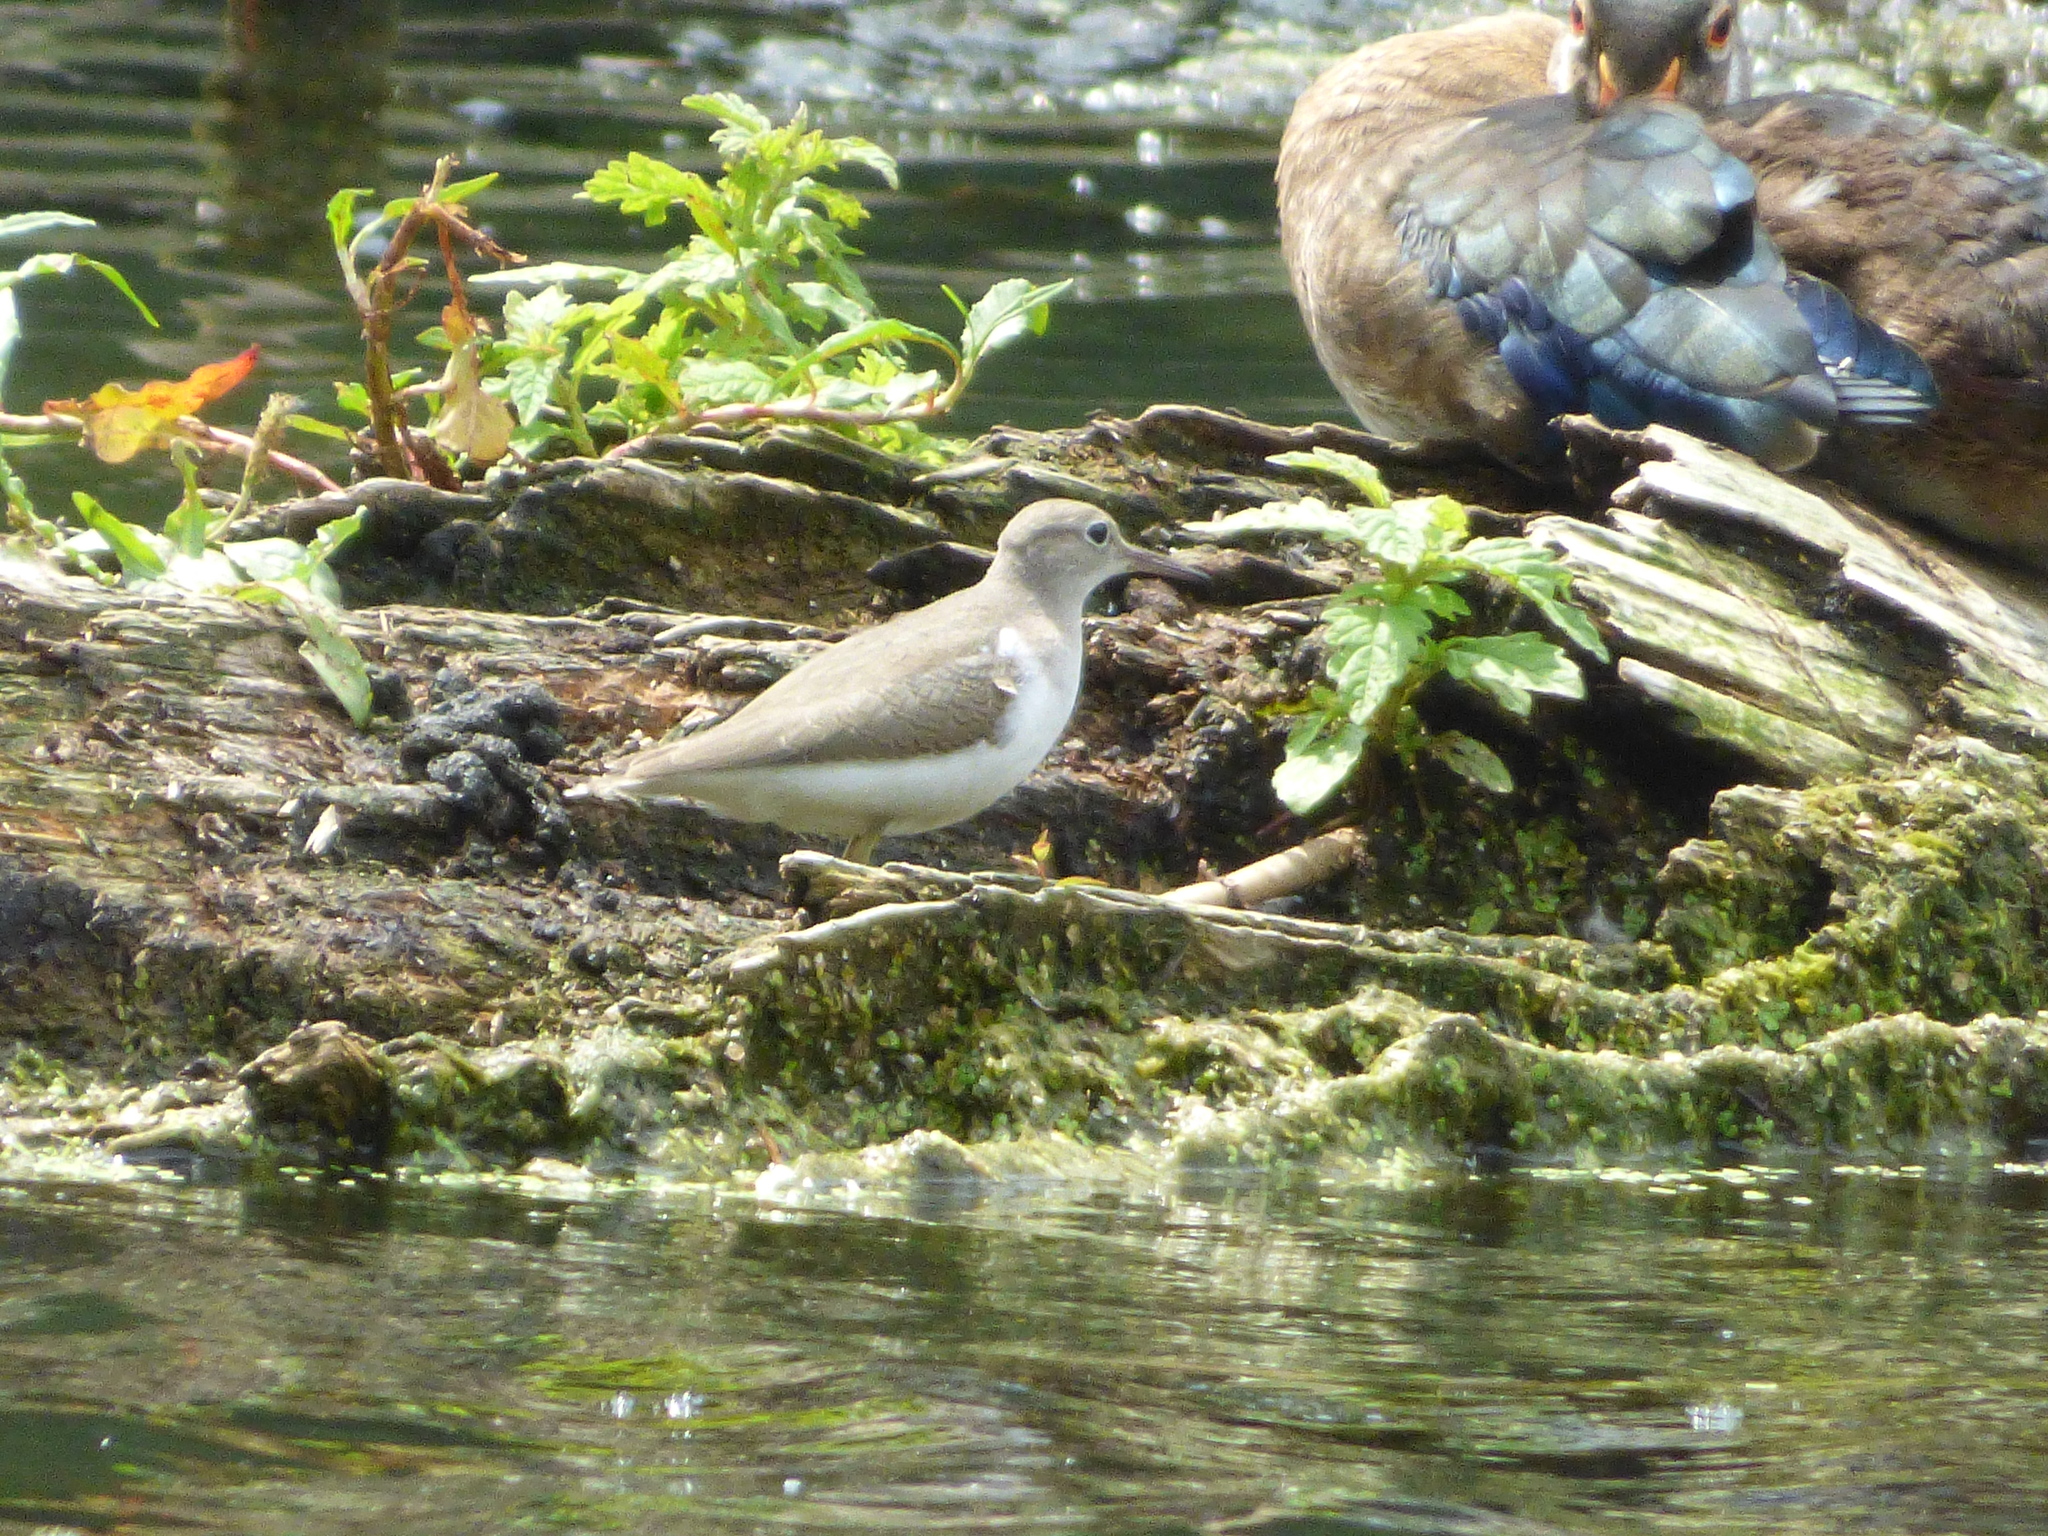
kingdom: Animalia
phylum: Chordata
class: Aves
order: Charadriiformes
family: Scolopacidae
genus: Actitis
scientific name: Actitis macularius
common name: Spotted sandpiper
